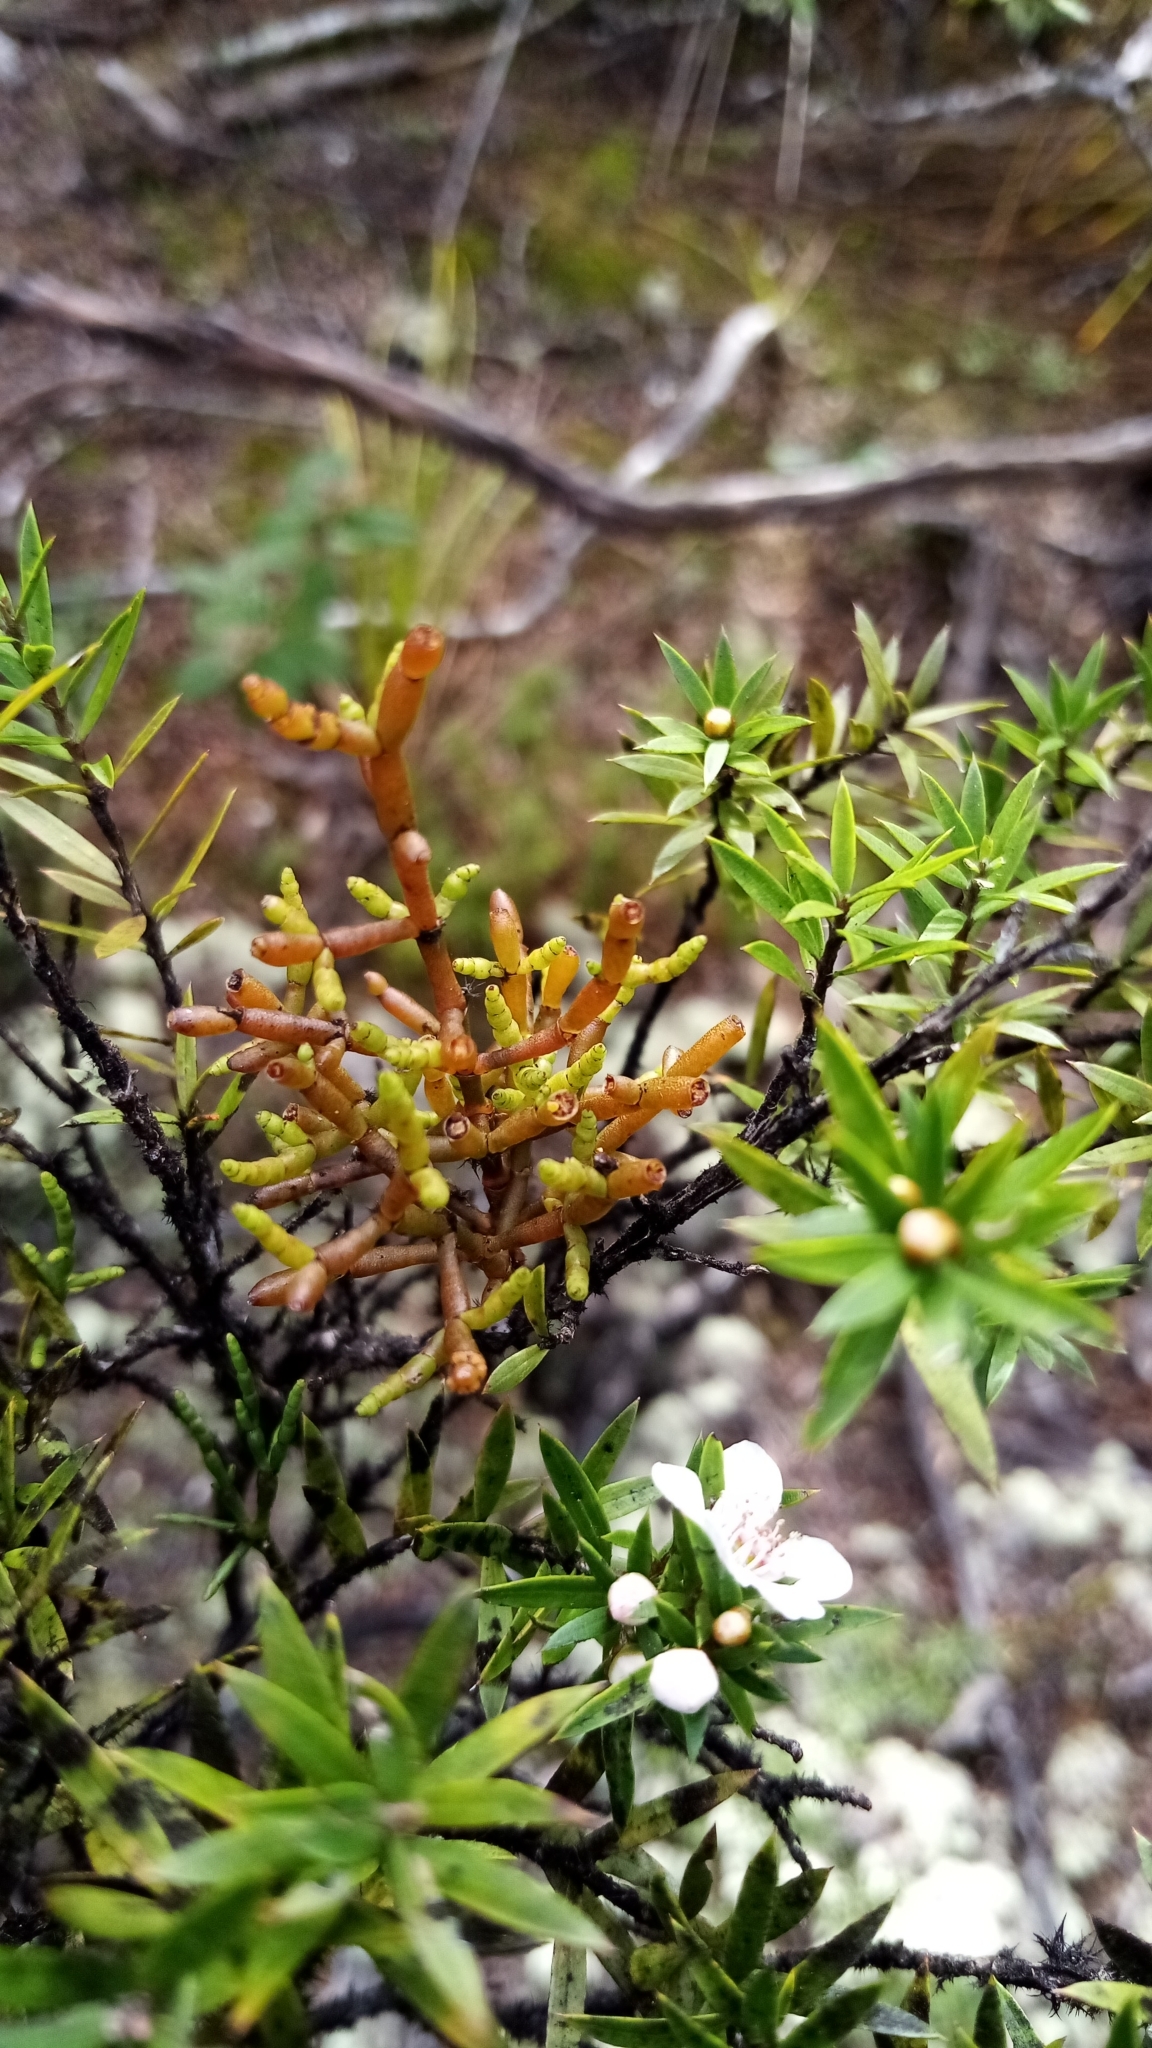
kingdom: Plantae
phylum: Tracheophyta
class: Magnoliopsida
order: Santalales
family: Viscaceae
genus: Korthalsella
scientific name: Korthalsella salicornioides
